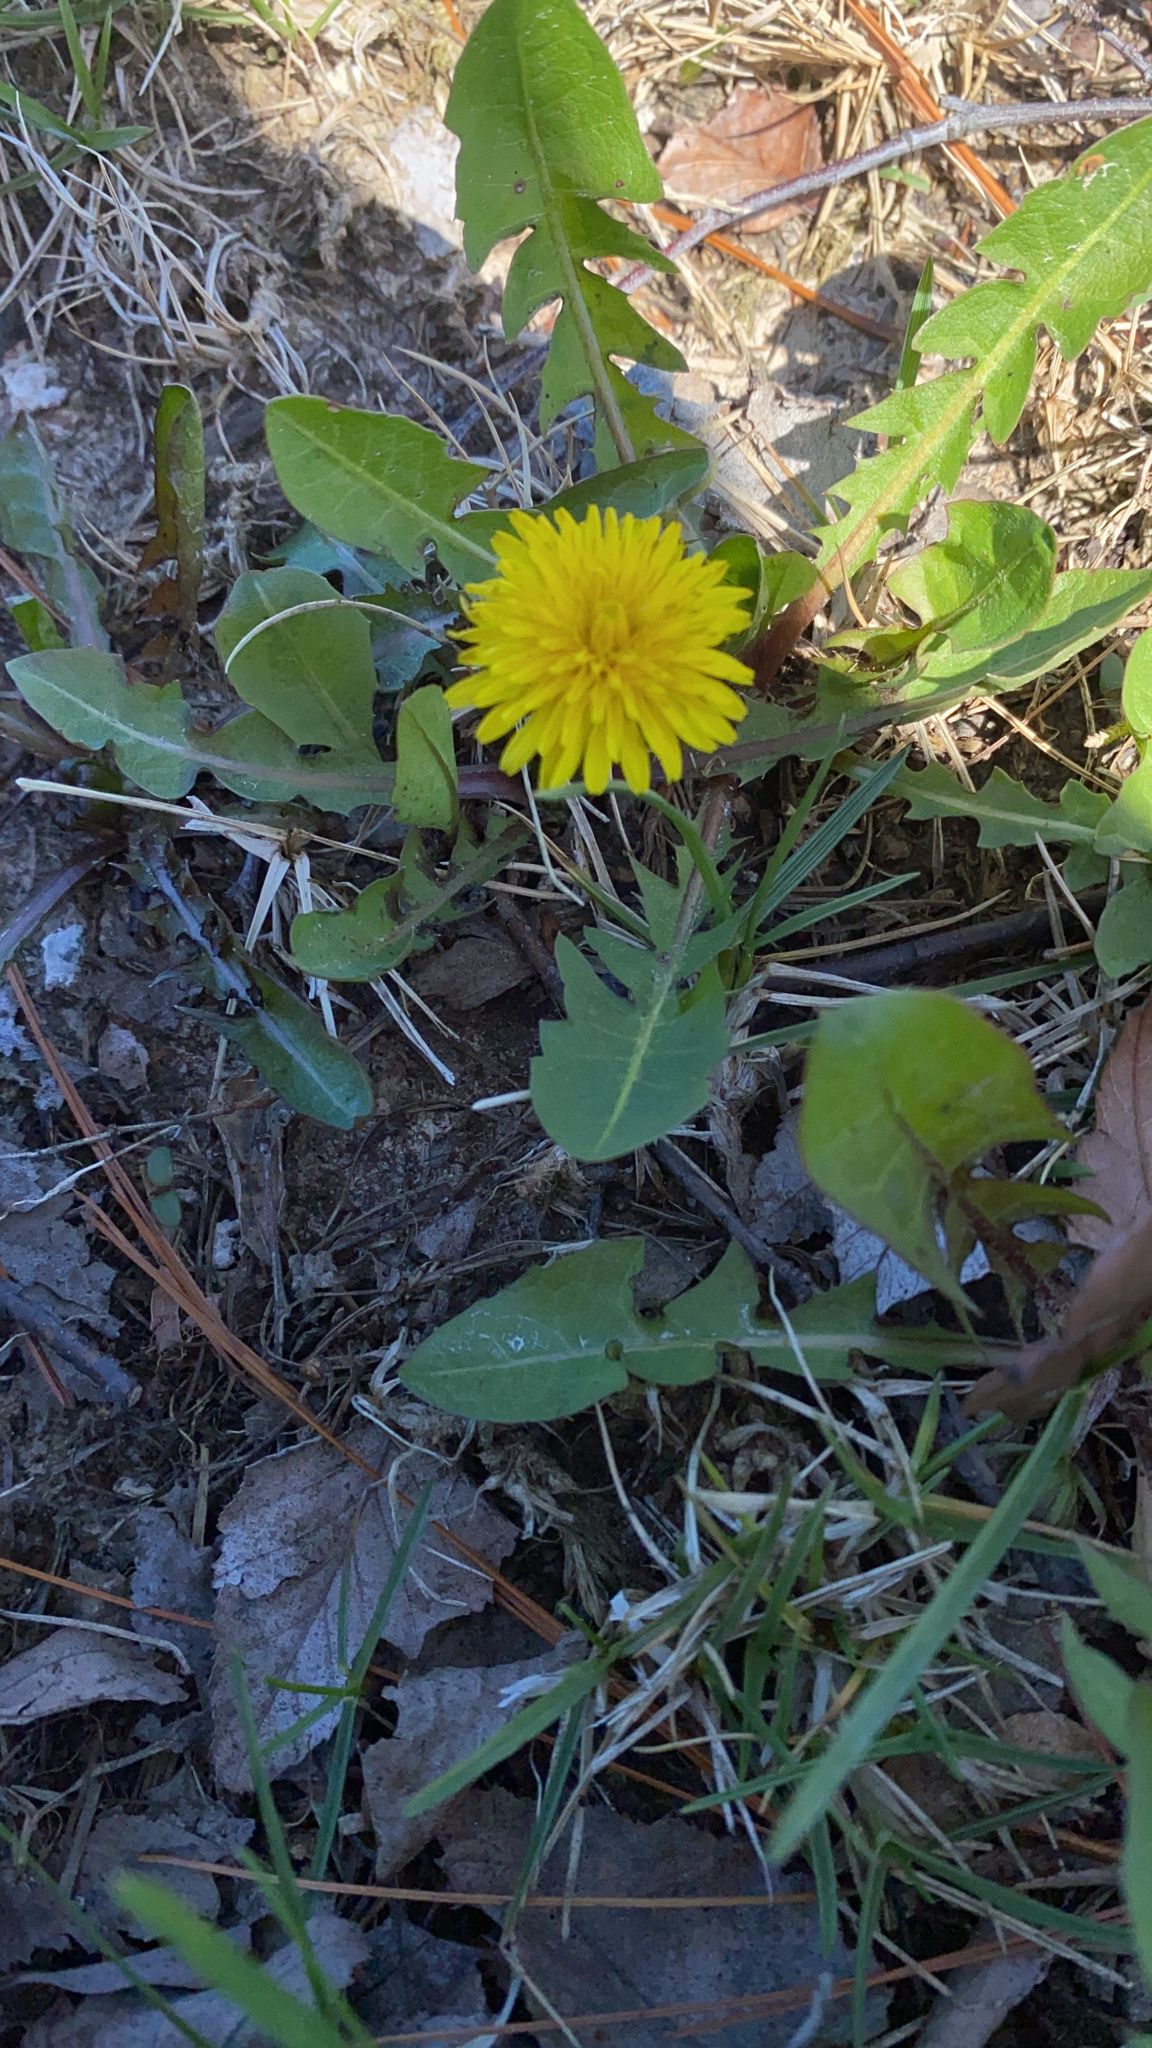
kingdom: Plantae
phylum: Tracheophyta
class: Magnoliopsida
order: Asterales
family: Asteraceae
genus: Taraxacum
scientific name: Taraxacum officinale
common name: Common dandelion
